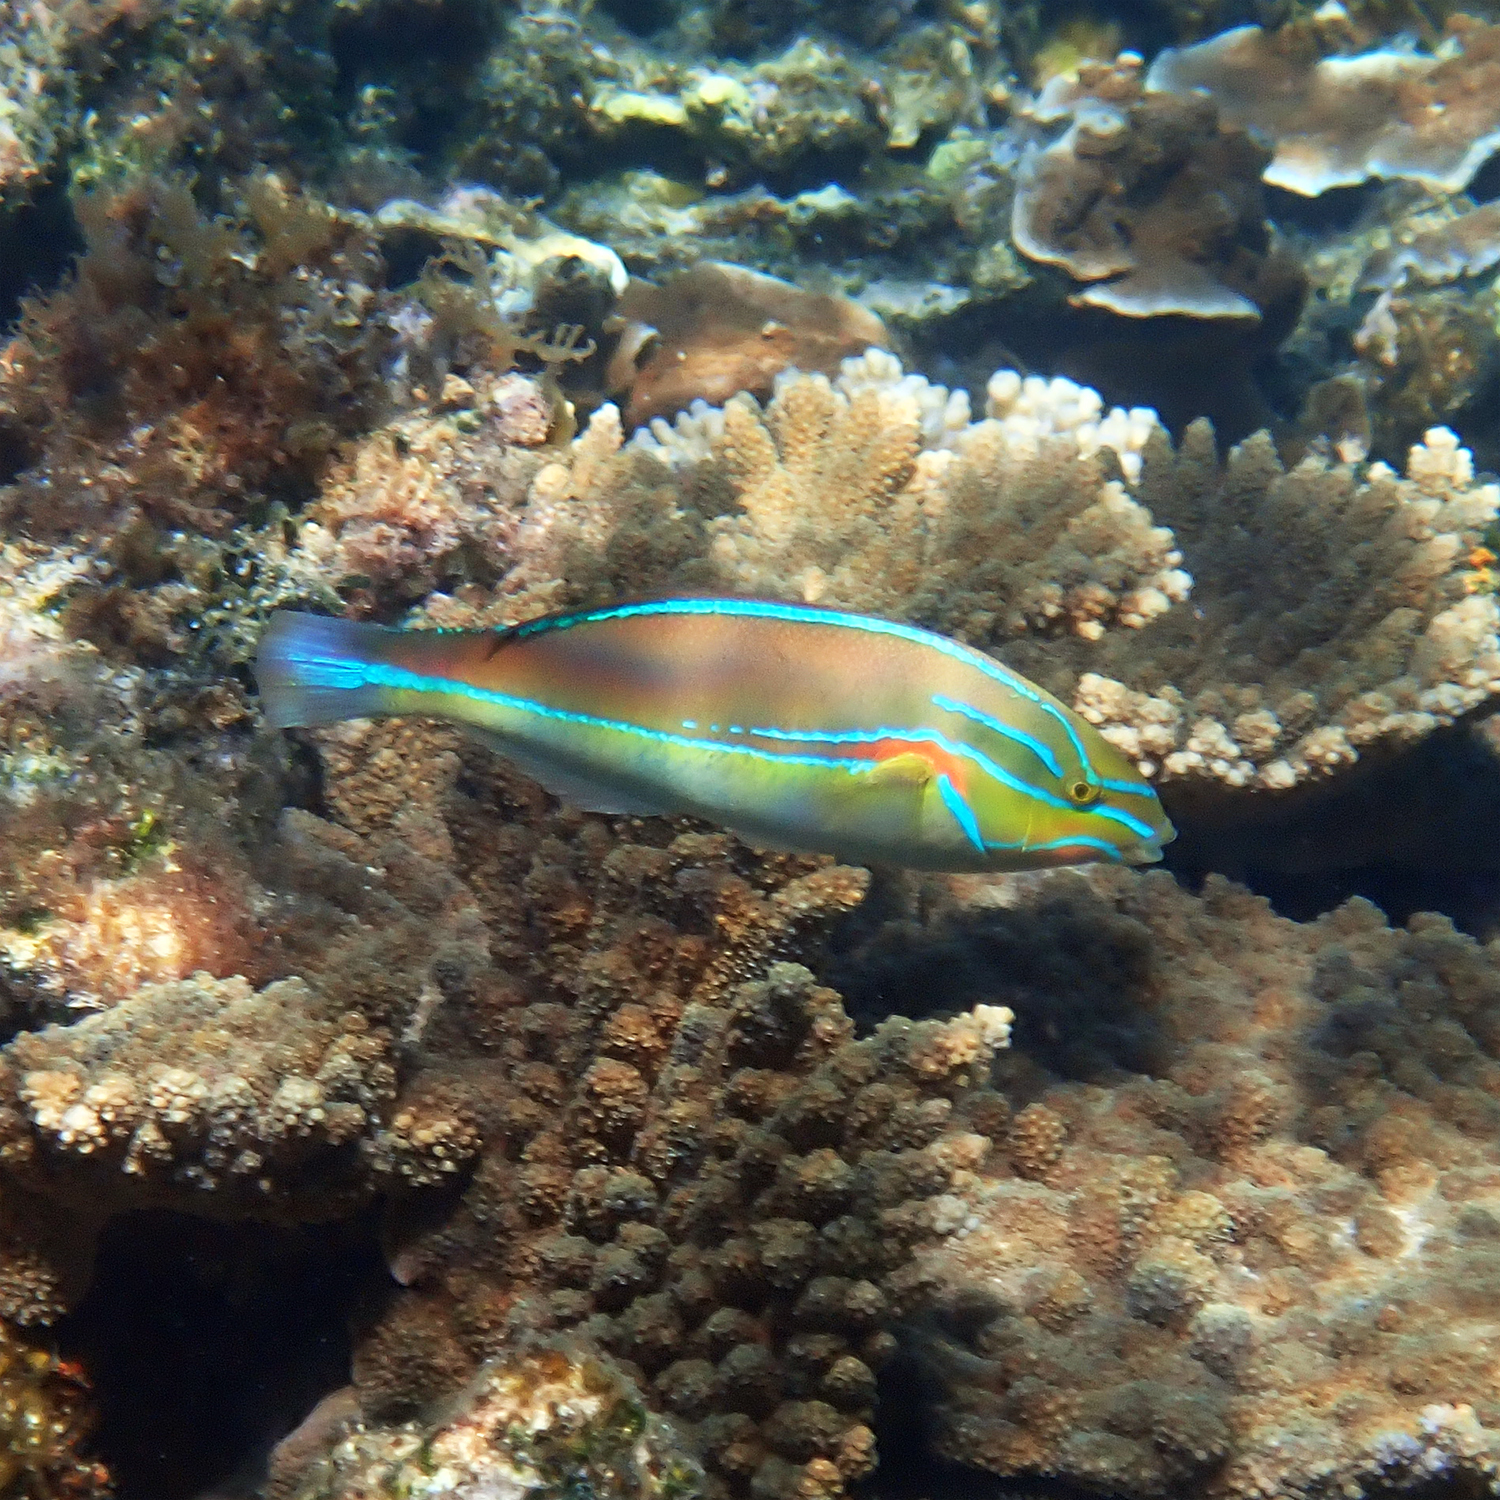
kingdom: Animalia
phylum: Chordata
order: Perciformes
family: Labridae
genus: Stethojulis
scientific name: Stethojulis bandanensis
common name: Red shoulder wrasse
